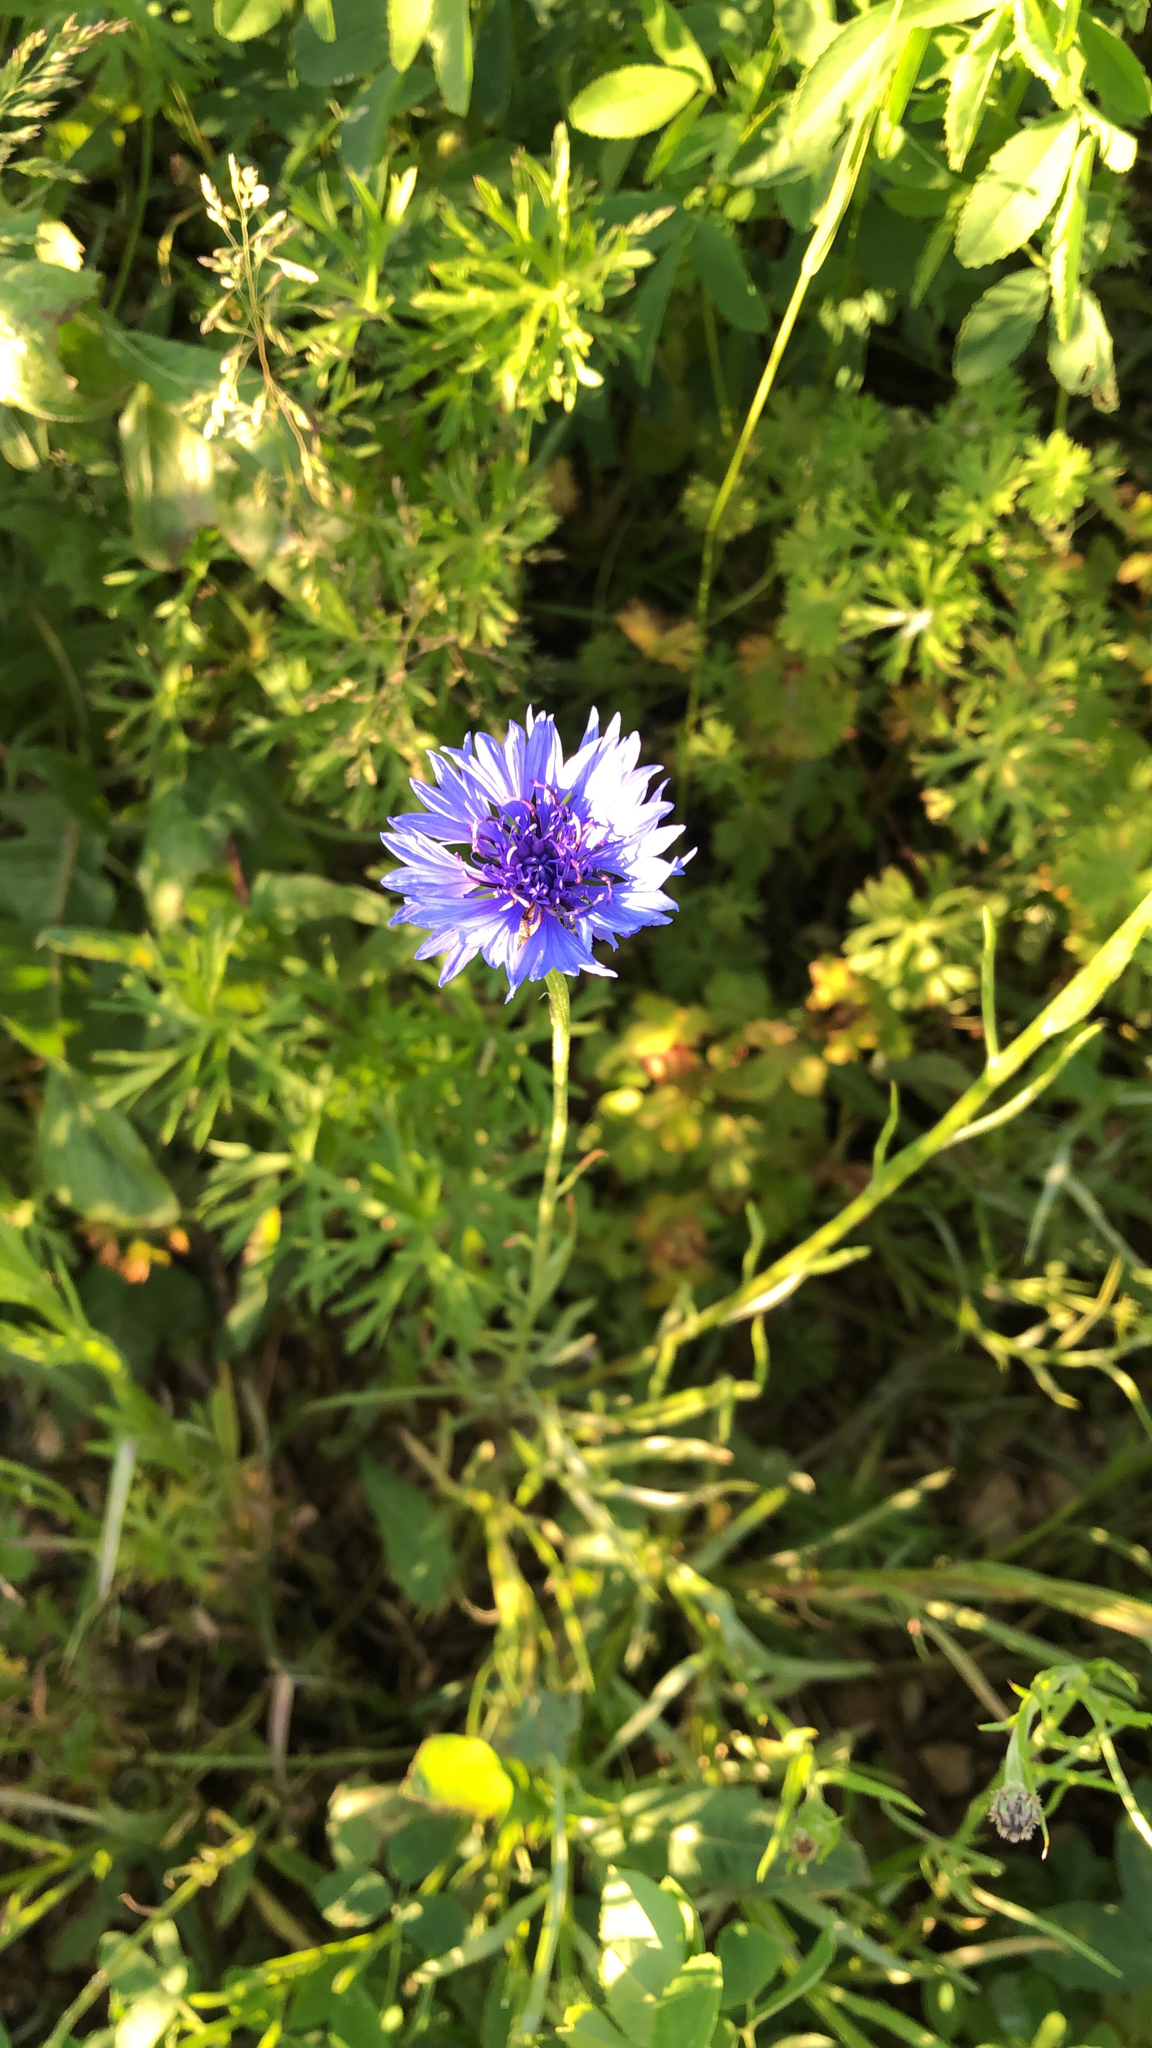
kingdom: Plantae
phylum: Tracheophyta
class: Magnoliopsida
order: Asterales
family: Asteraceae
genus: Centaurea
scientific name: Centaurea cyanus
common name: Cornflower
